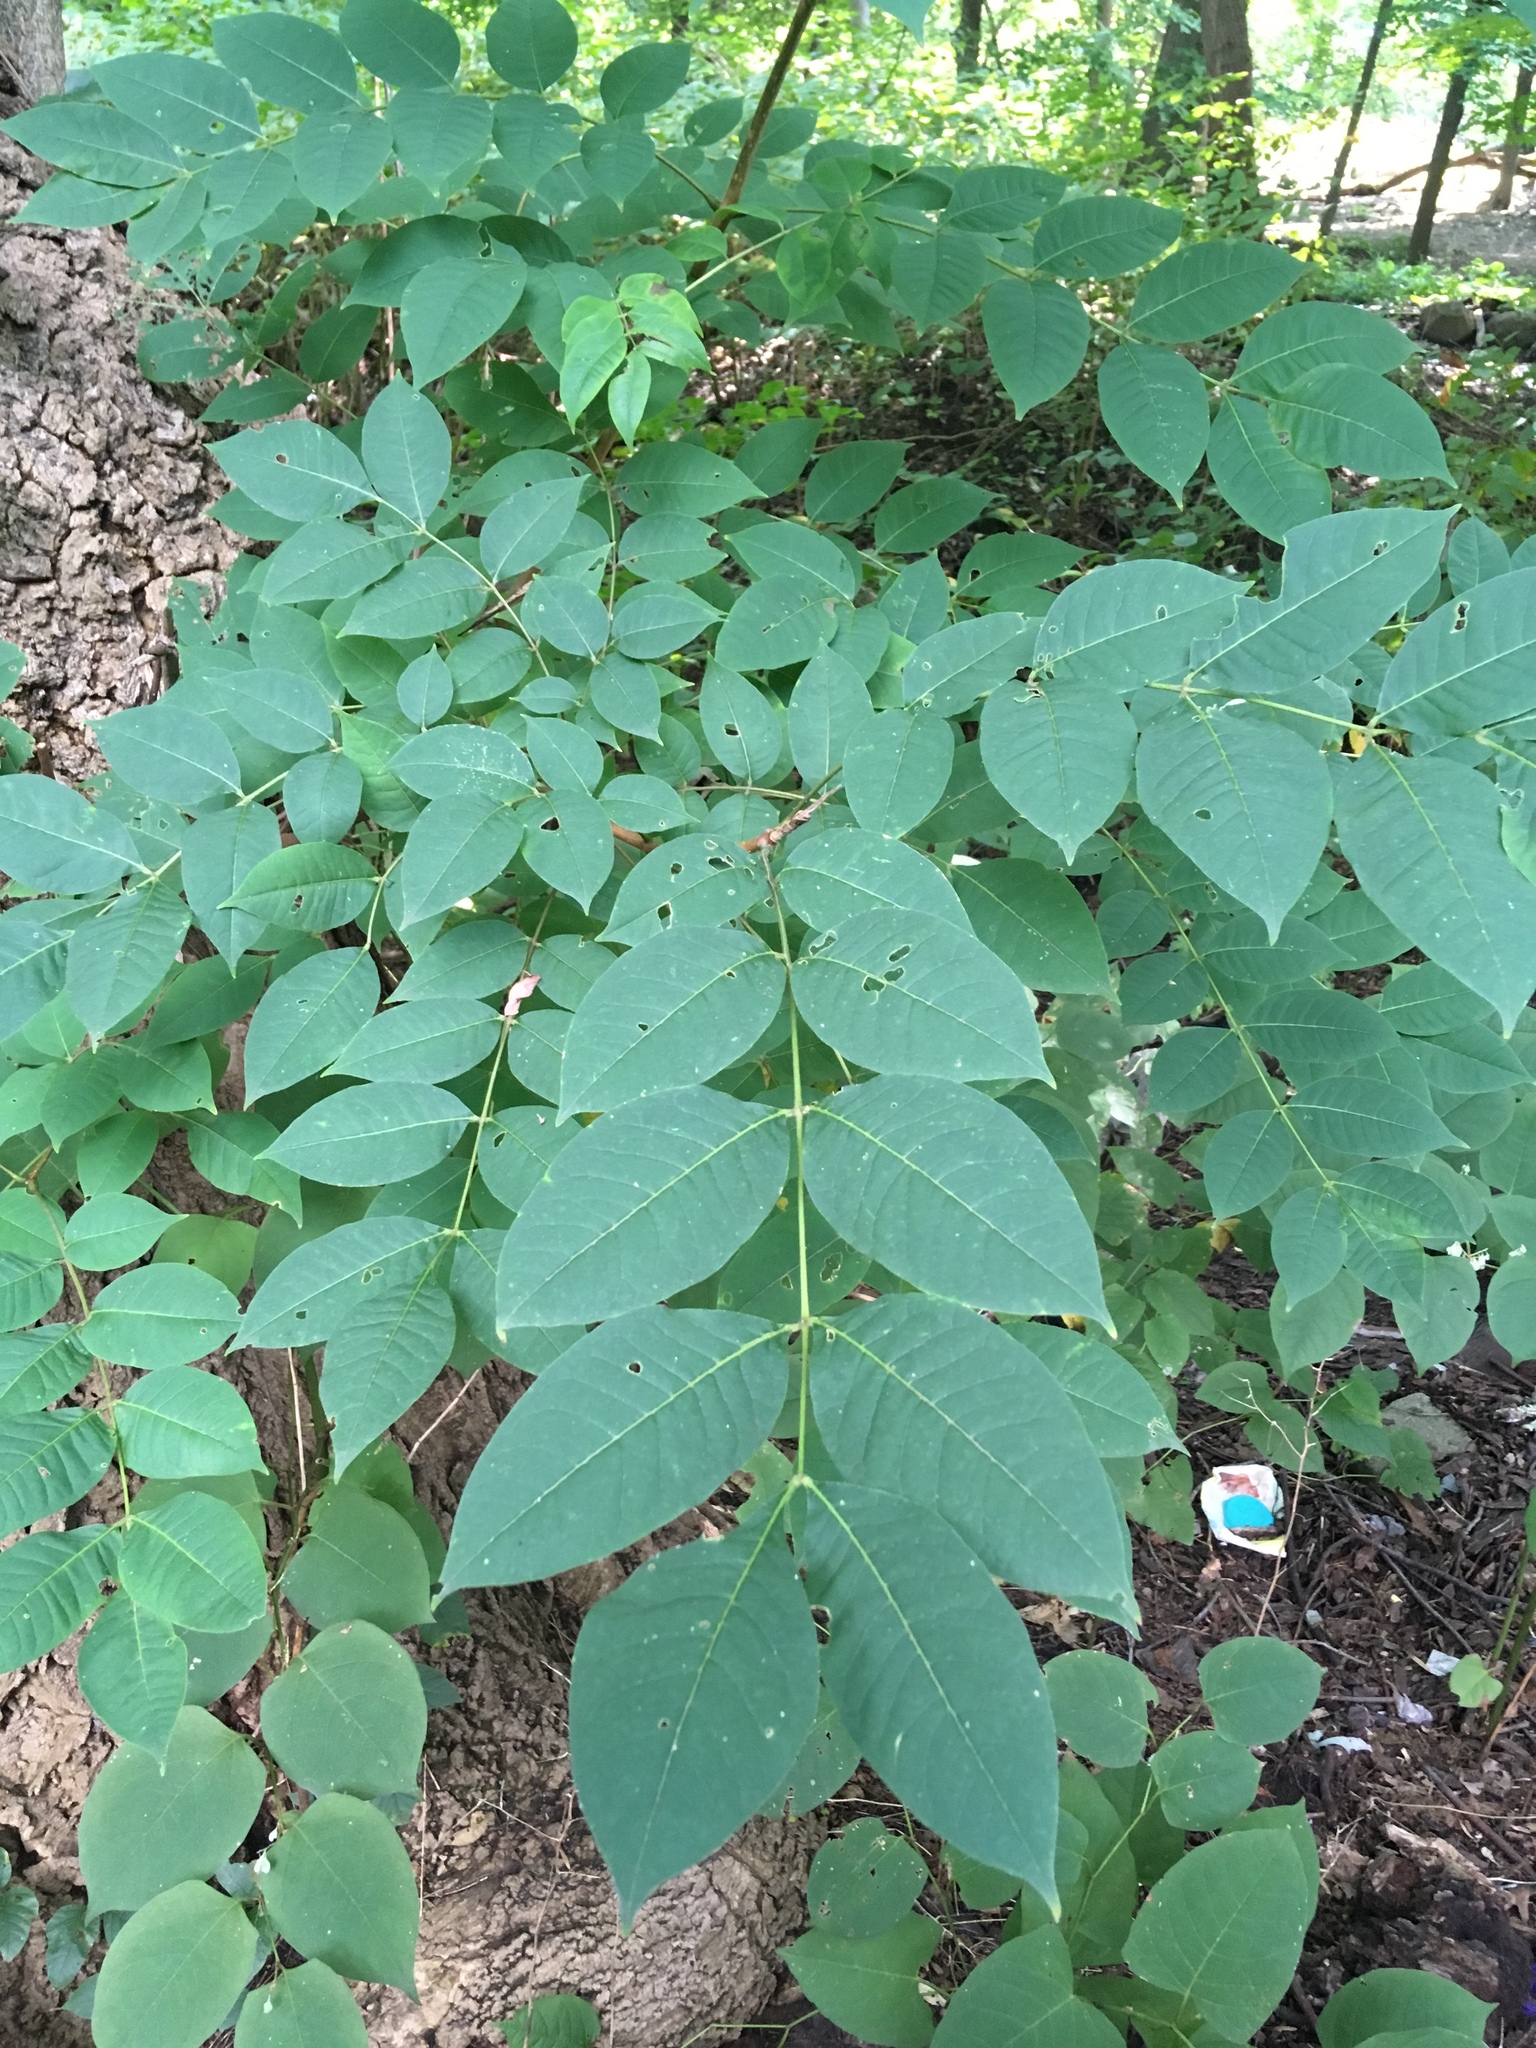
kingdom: Plantae
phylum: Tracheophyta
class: Magnoliopsida
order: Sapindales
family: Rutaceae
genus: Phellodendron
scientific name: Phellodendron amurense
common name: Amur corktree
